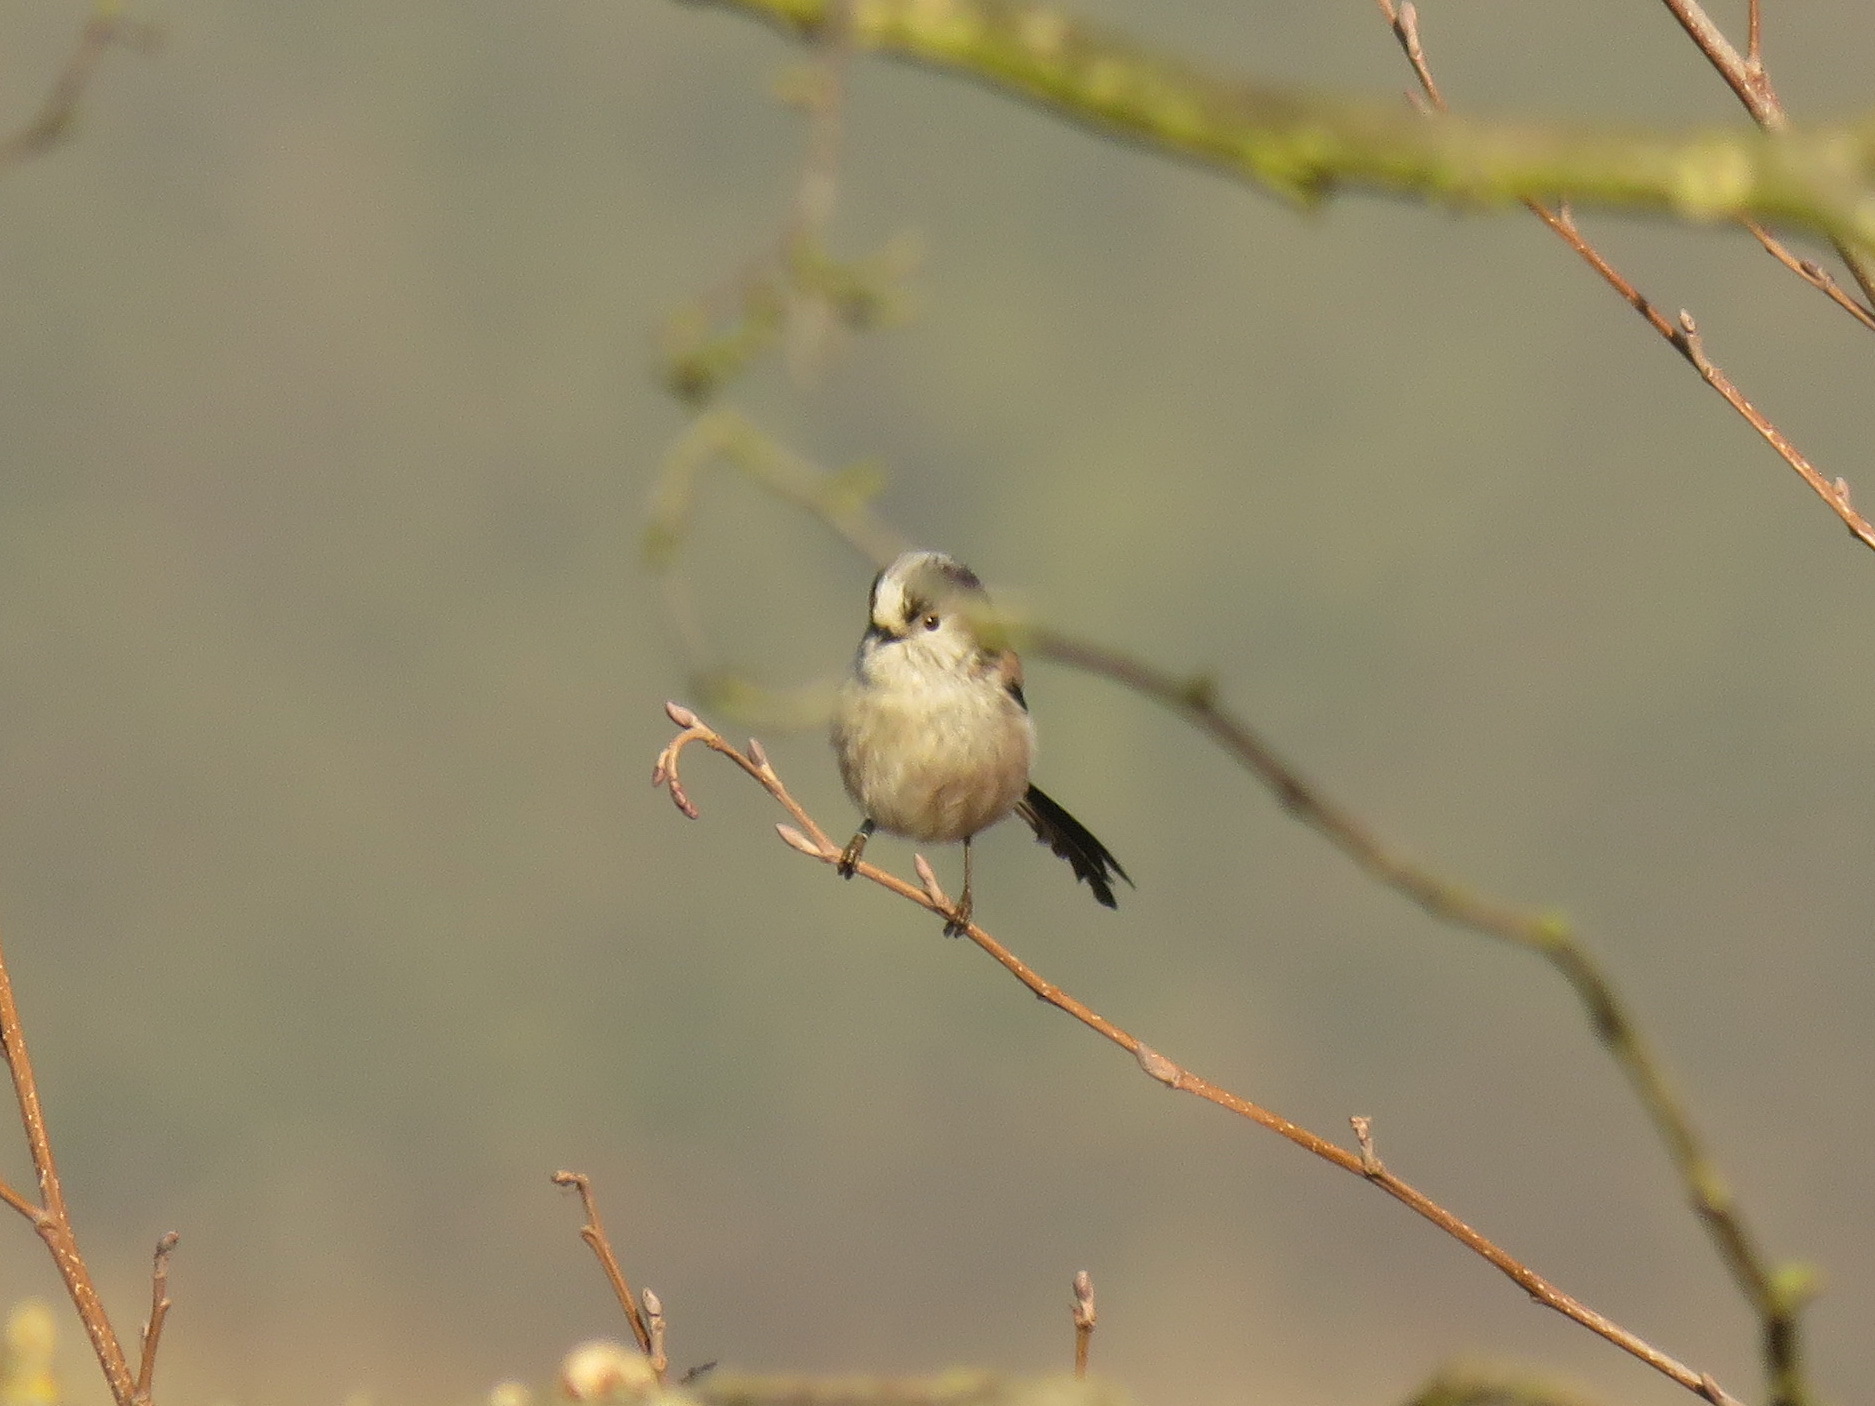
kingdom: Animalia
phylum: Chordata
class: Aves
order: Passeriformes
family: Aegithalidae
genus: Aegithalos
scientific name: Aegithalos caudatus
